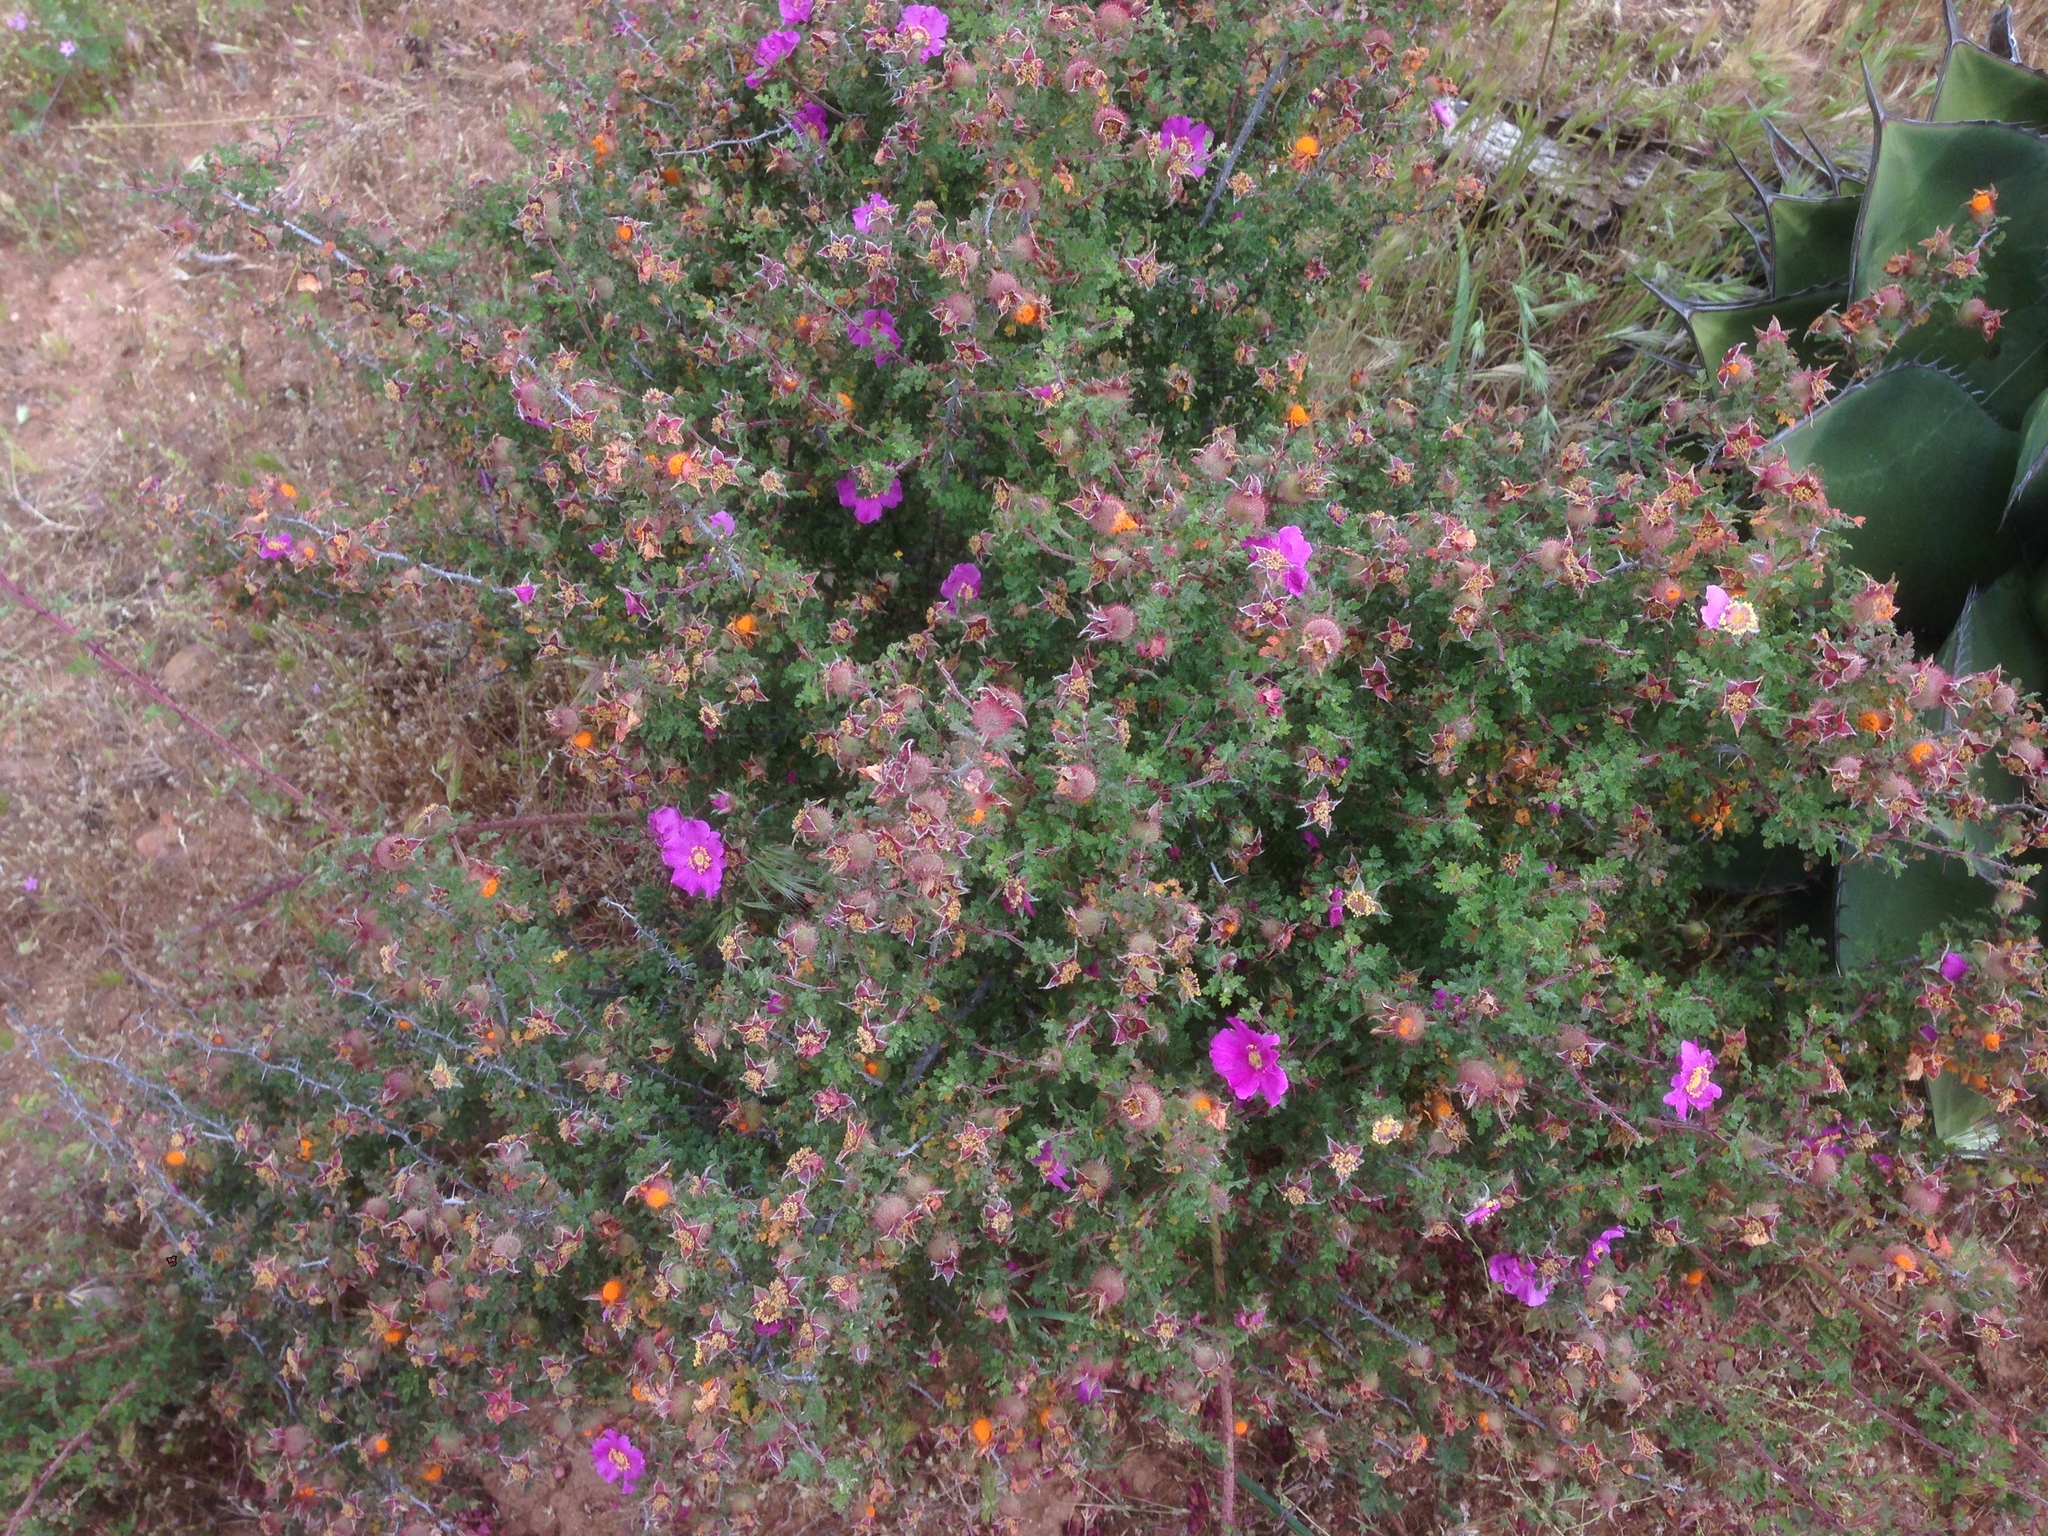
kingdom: Plantae
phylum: Tracheophyta
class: Magnoliopsida
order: Rosales
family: Rosaceae
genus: Rosa
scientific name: Rosa minutifolia
